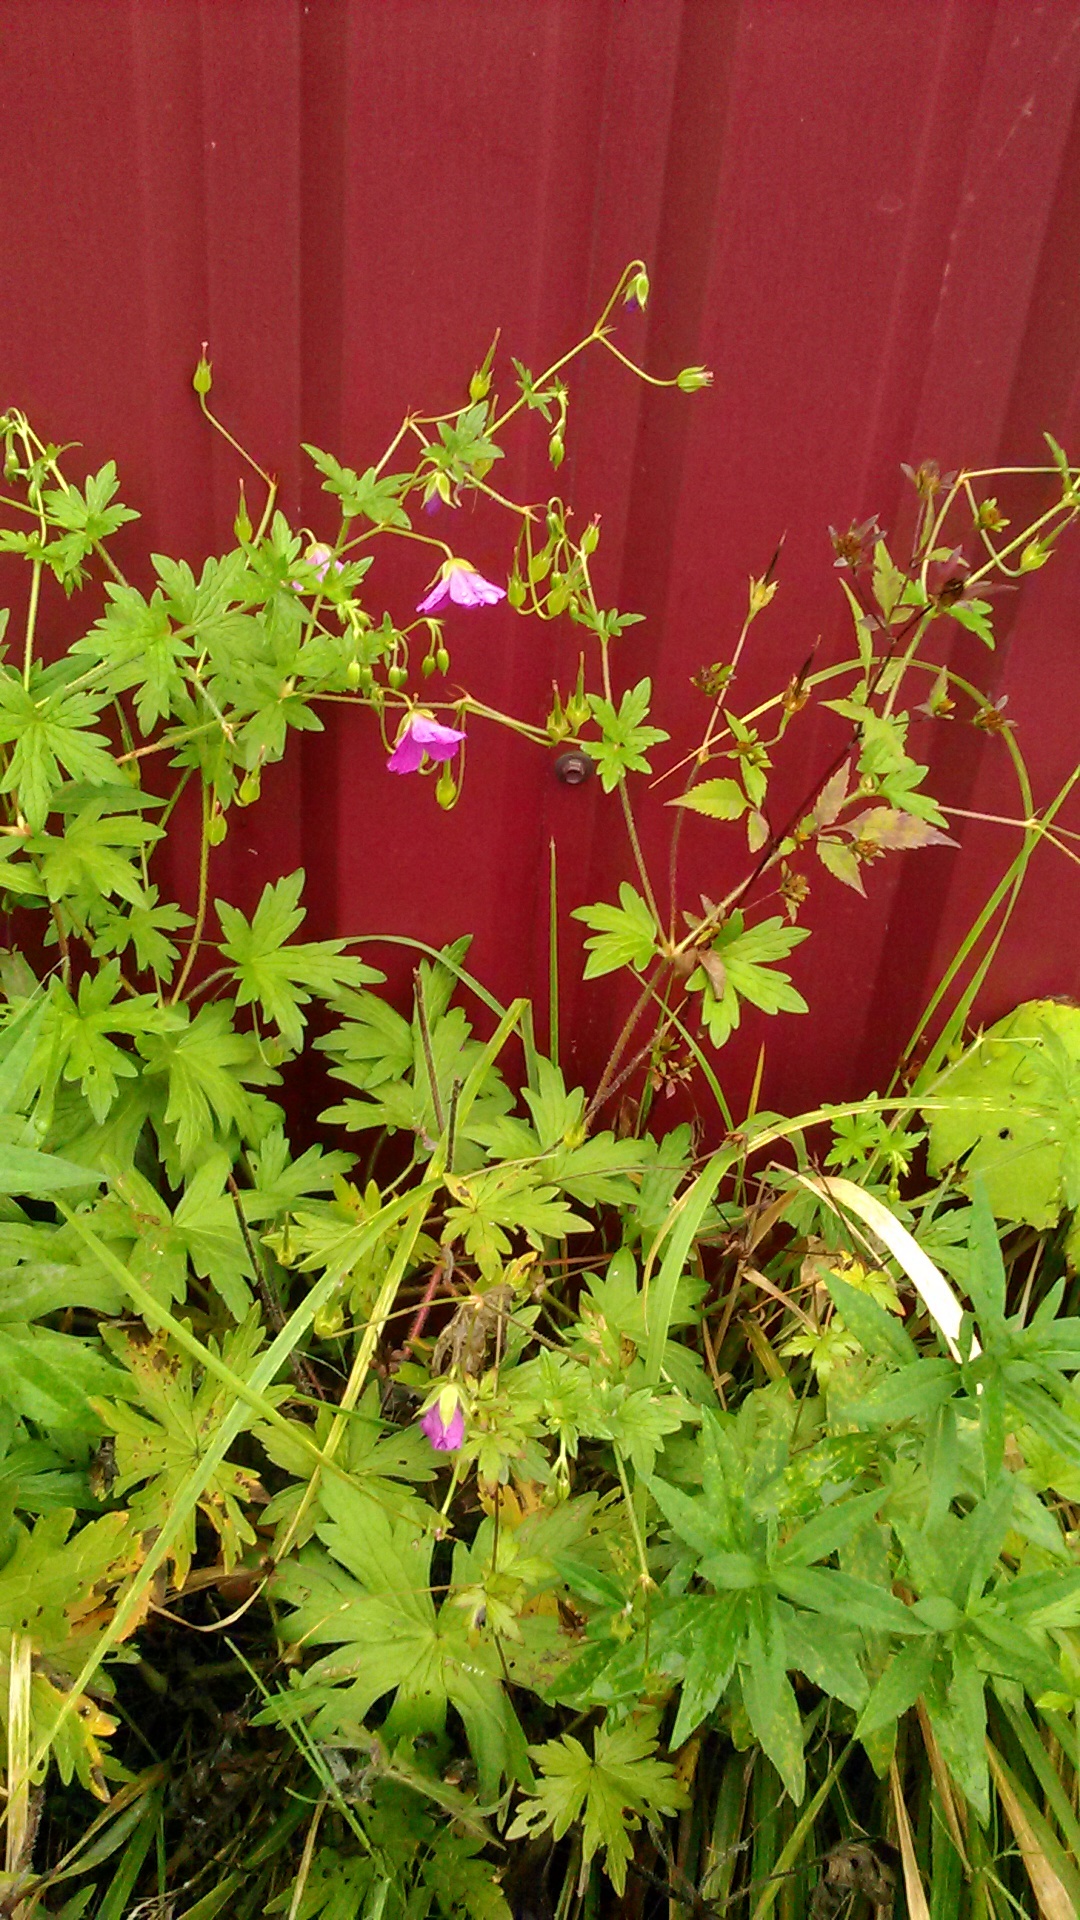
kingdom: Plantae
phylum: Tracheophyta
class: Magnoliopsida
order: Geraniales
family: Geraniaceae
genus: Geranium
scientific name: Geranium palustre
